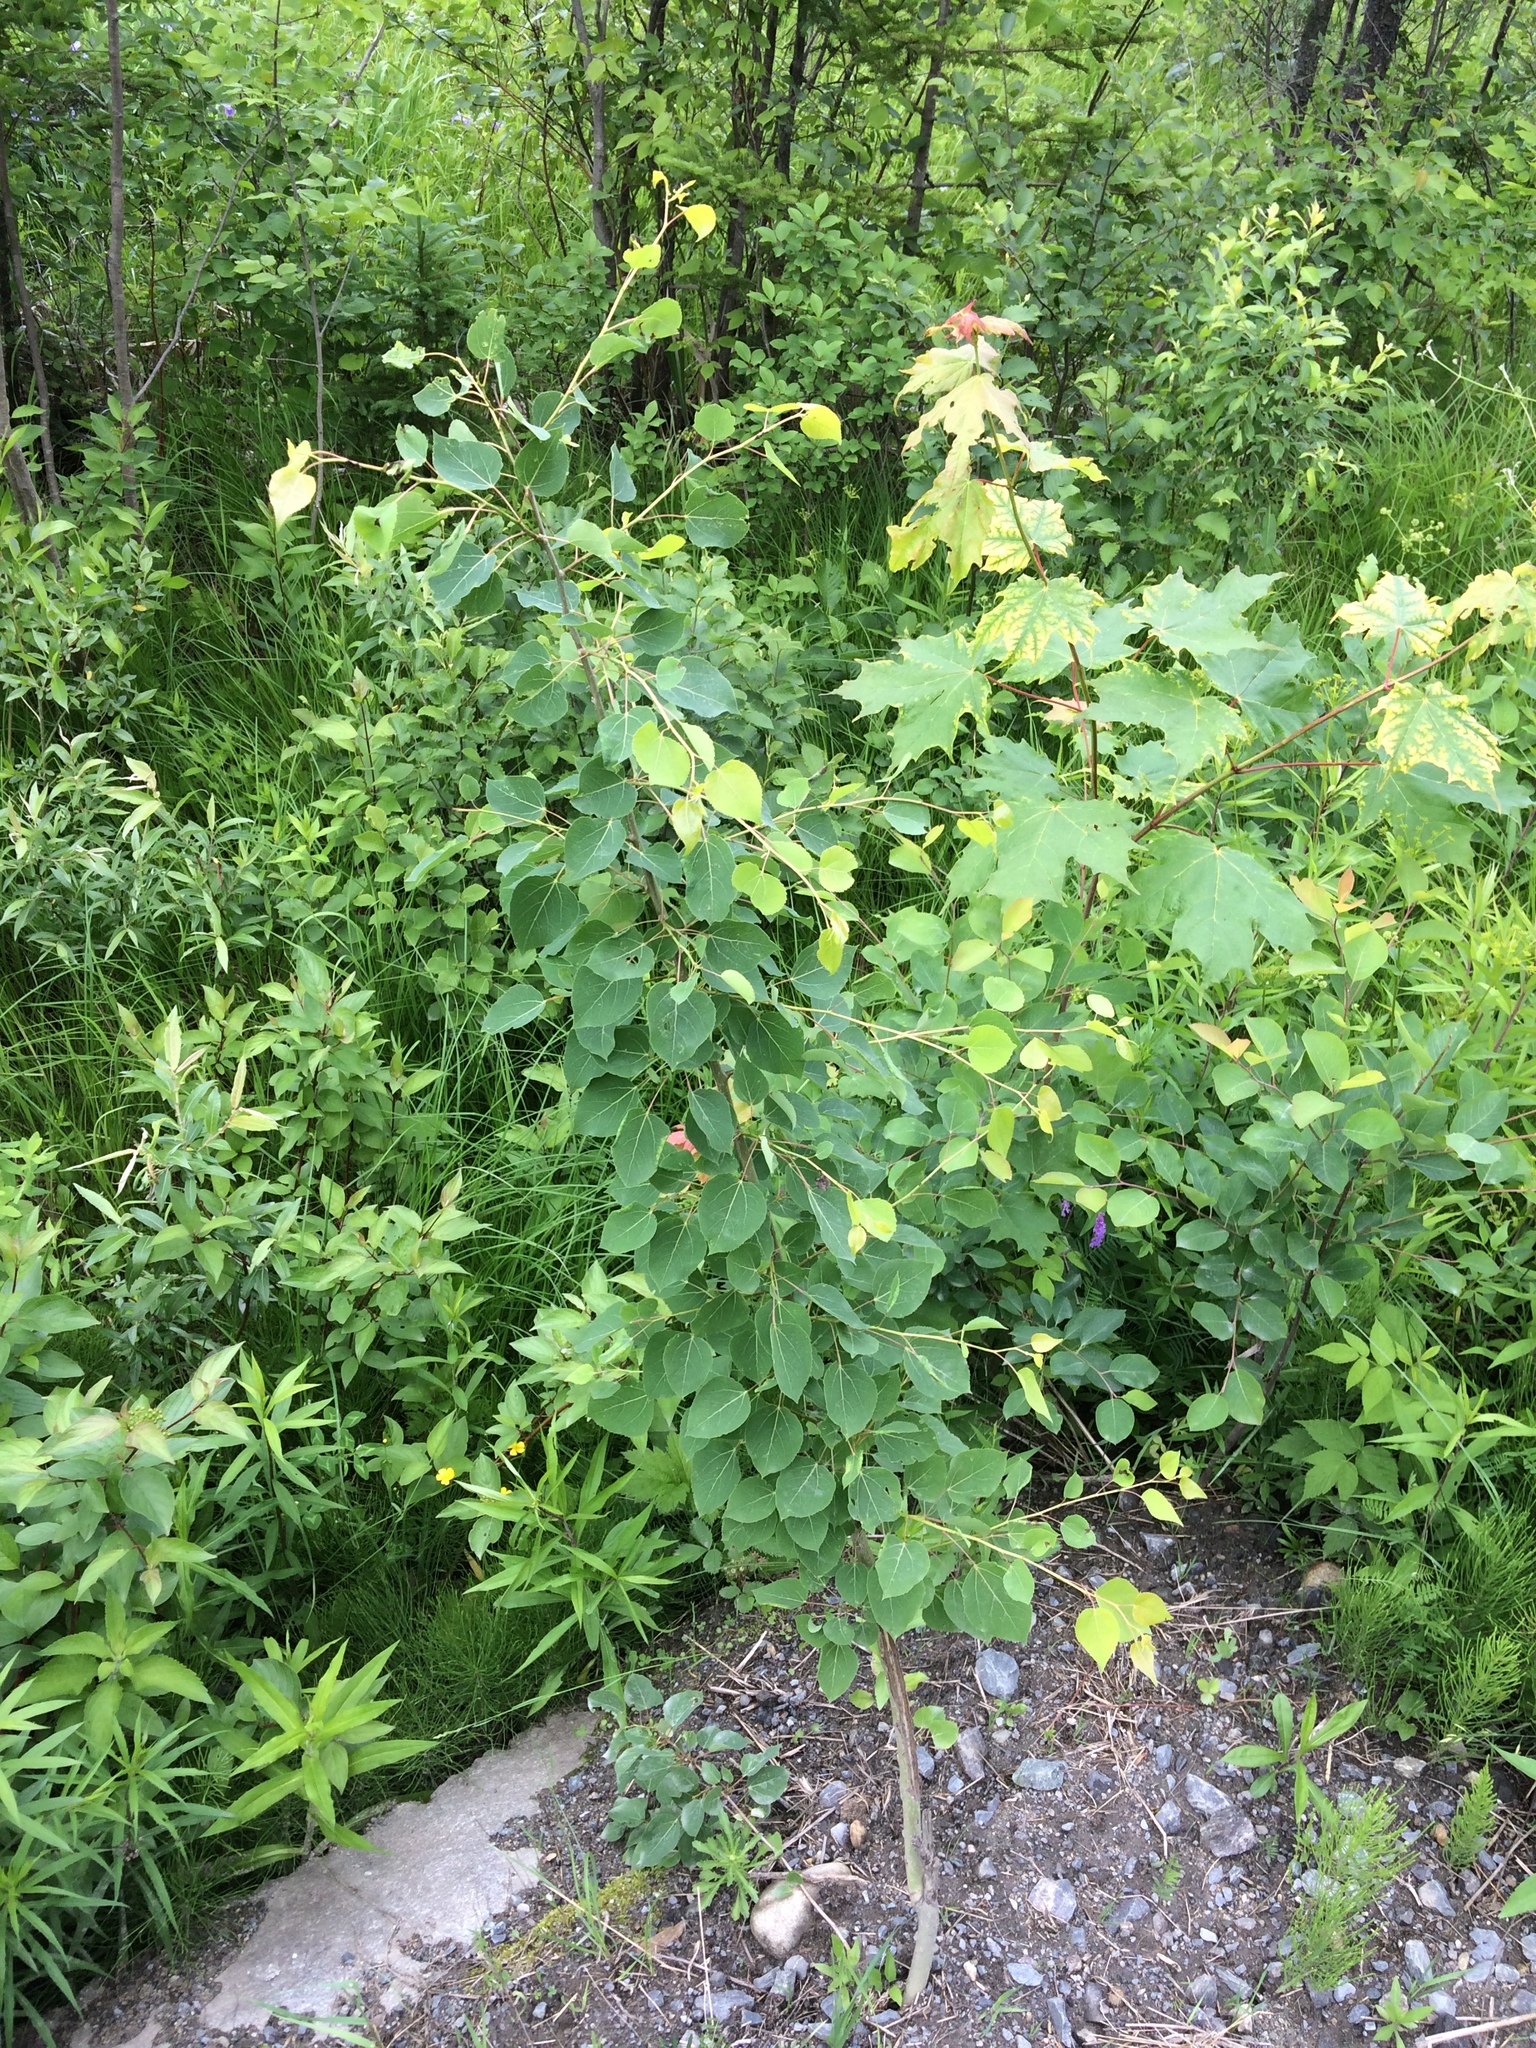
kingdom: Plantae
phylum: Tracheophyta
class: Magnoliopsida
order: Malpighiales
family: Salicaceae
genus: Populus
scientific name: Populus tremuloides
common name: Quaking aspen
